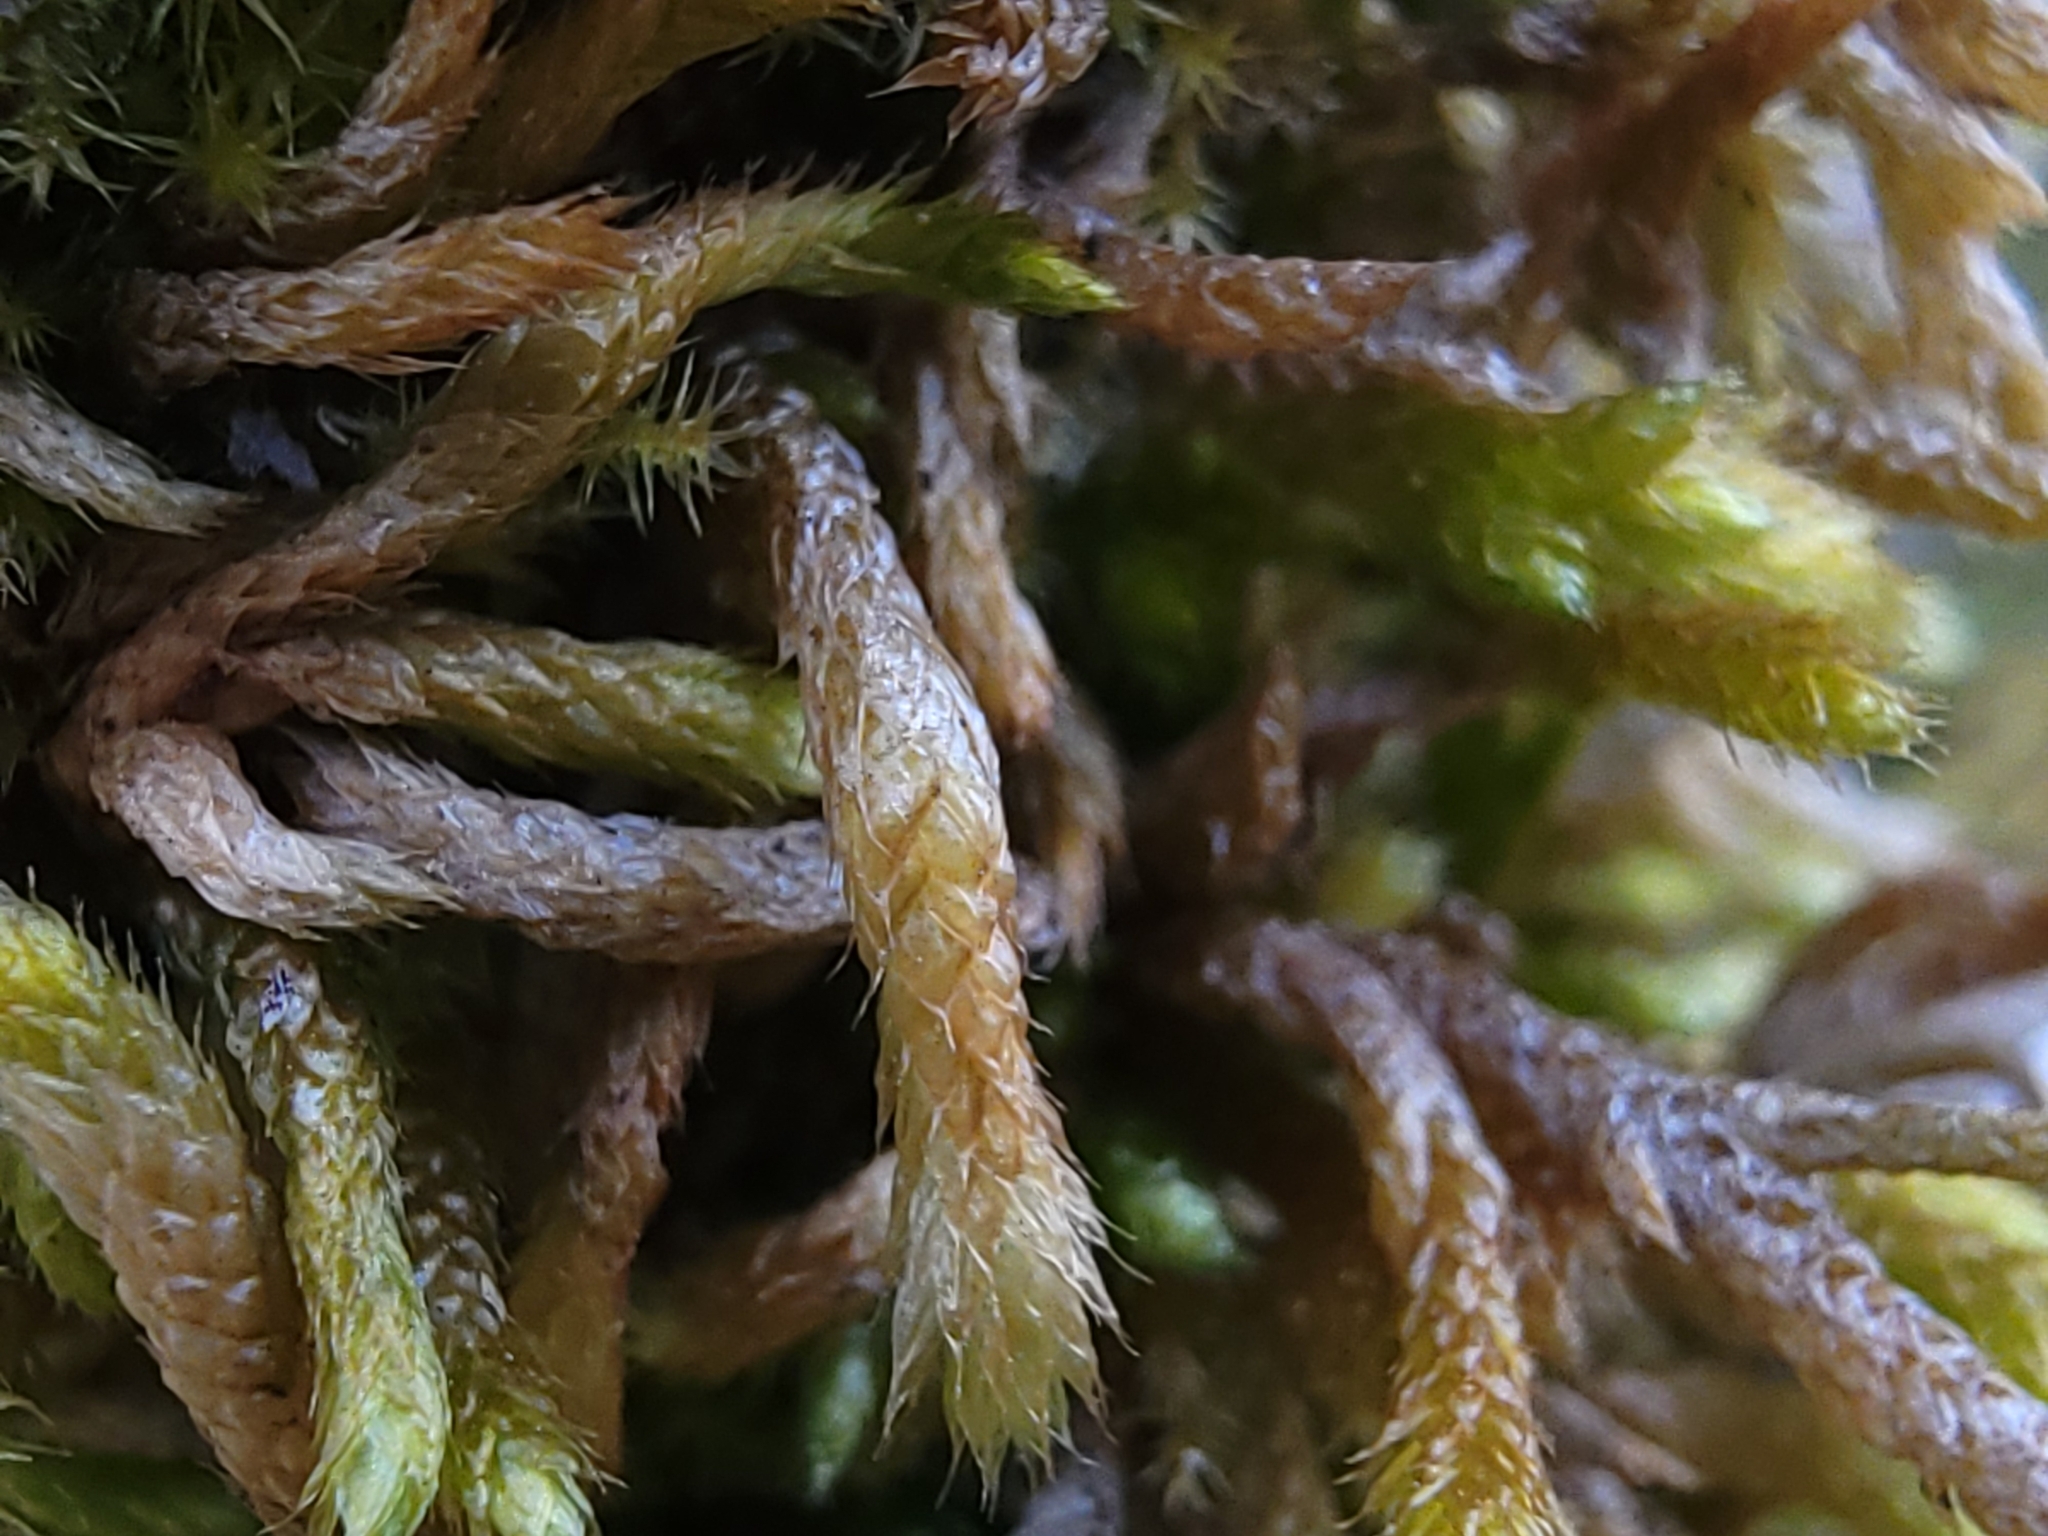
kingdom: Plantae
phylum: Bryophyta
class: Bryopsida
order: Hypnales
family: Brachytheciaceae
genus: Bryoandersonia
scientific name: Bryoandersonia illecebra
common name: Spoon-leaved moss
